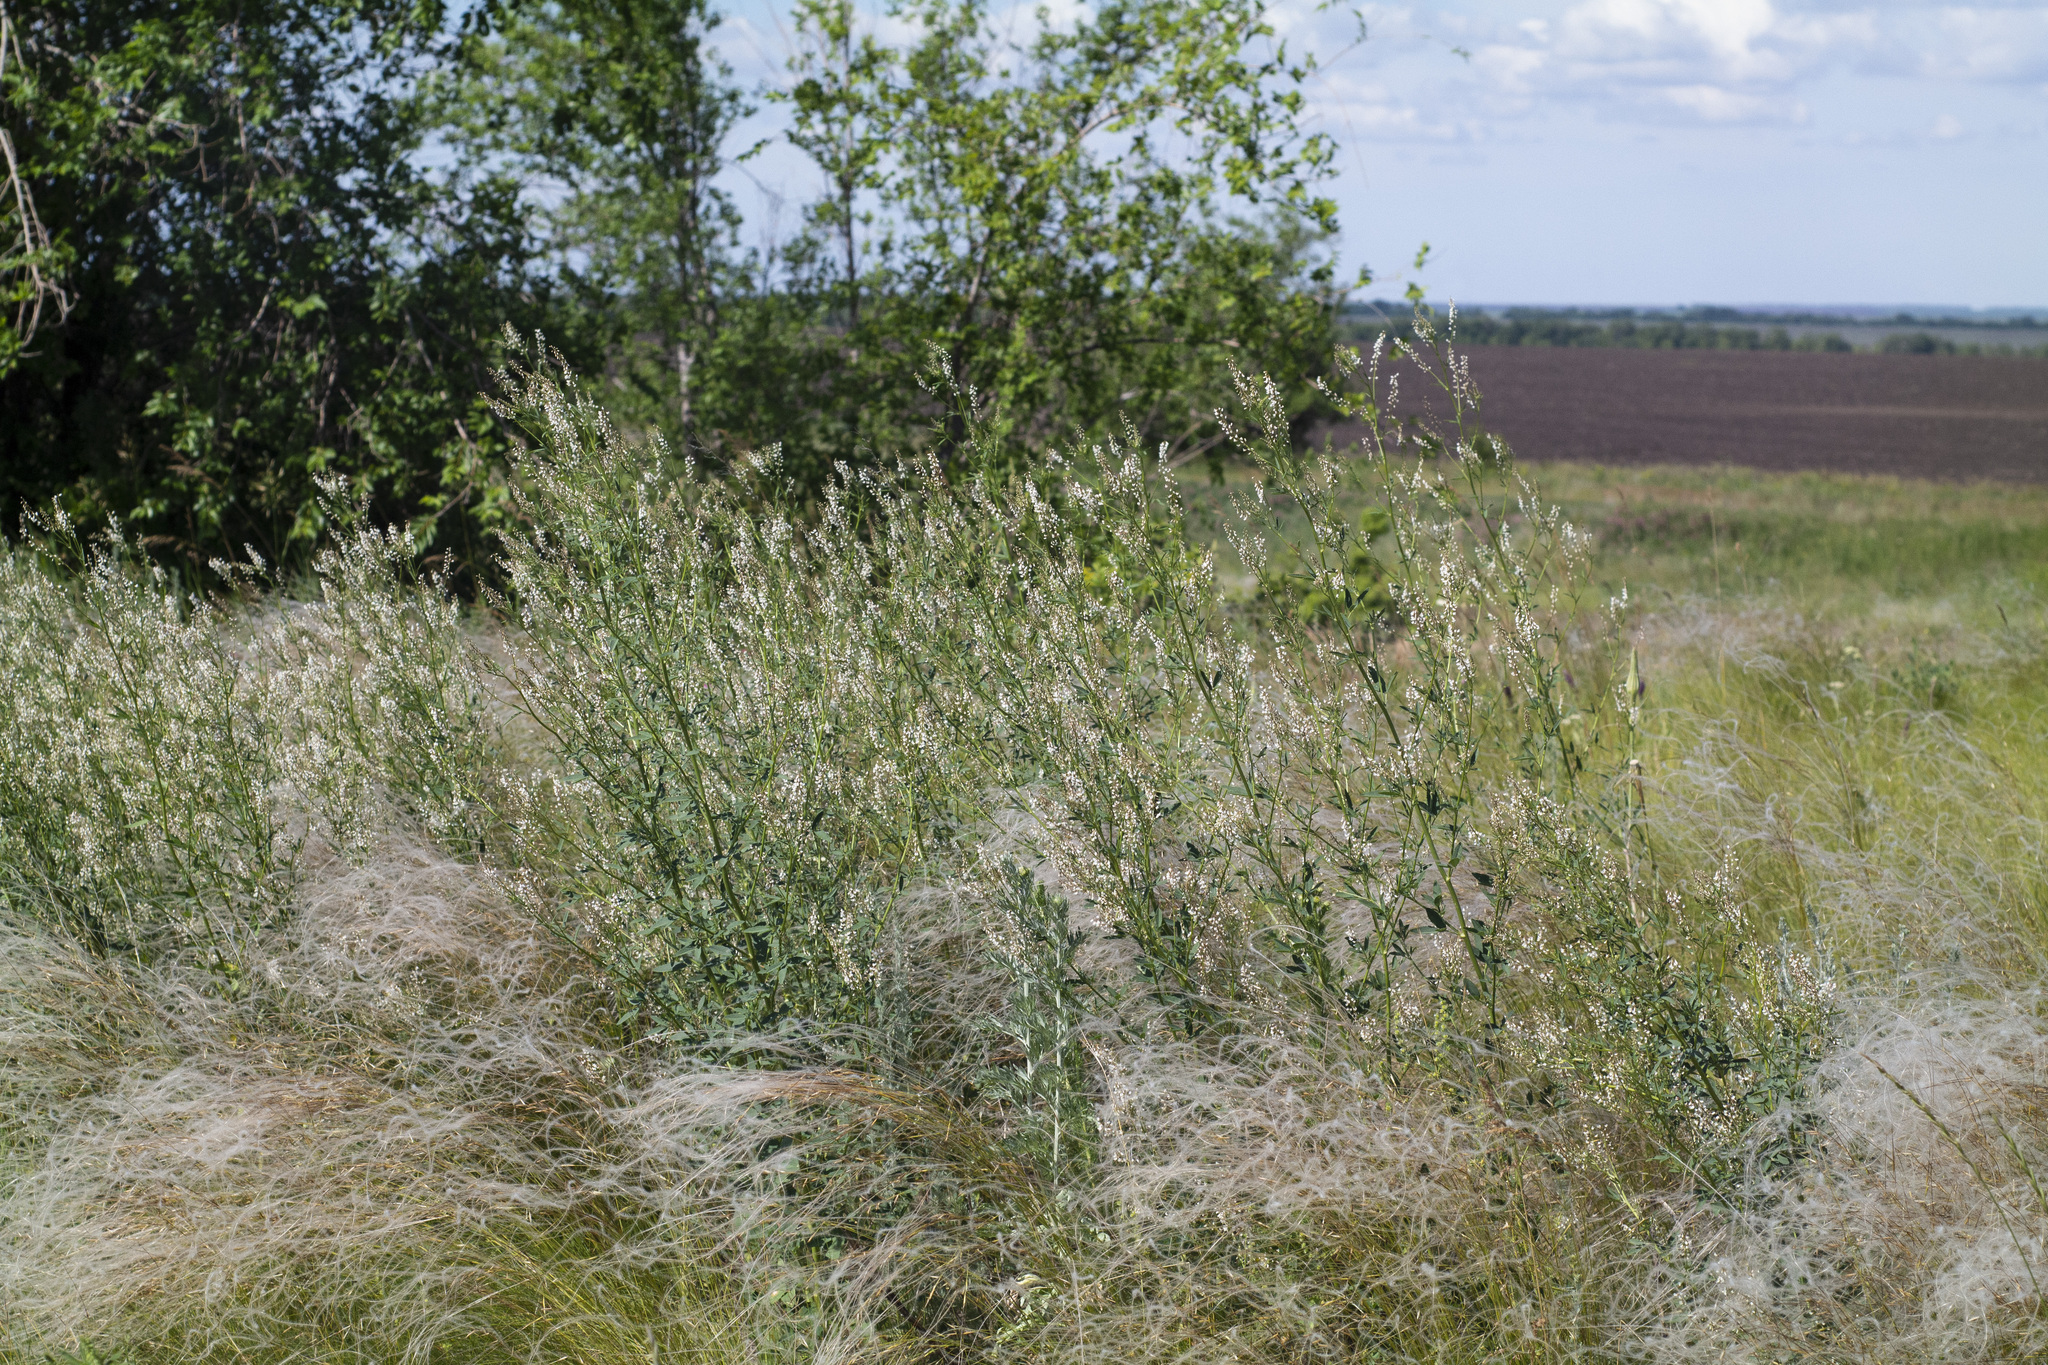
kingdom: Plantae
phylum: Tracheophyta
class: Magnoliopsida
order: Fabales
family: Fabaceae
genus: Melilotus
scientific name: Melilotus albus
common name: White melilot
